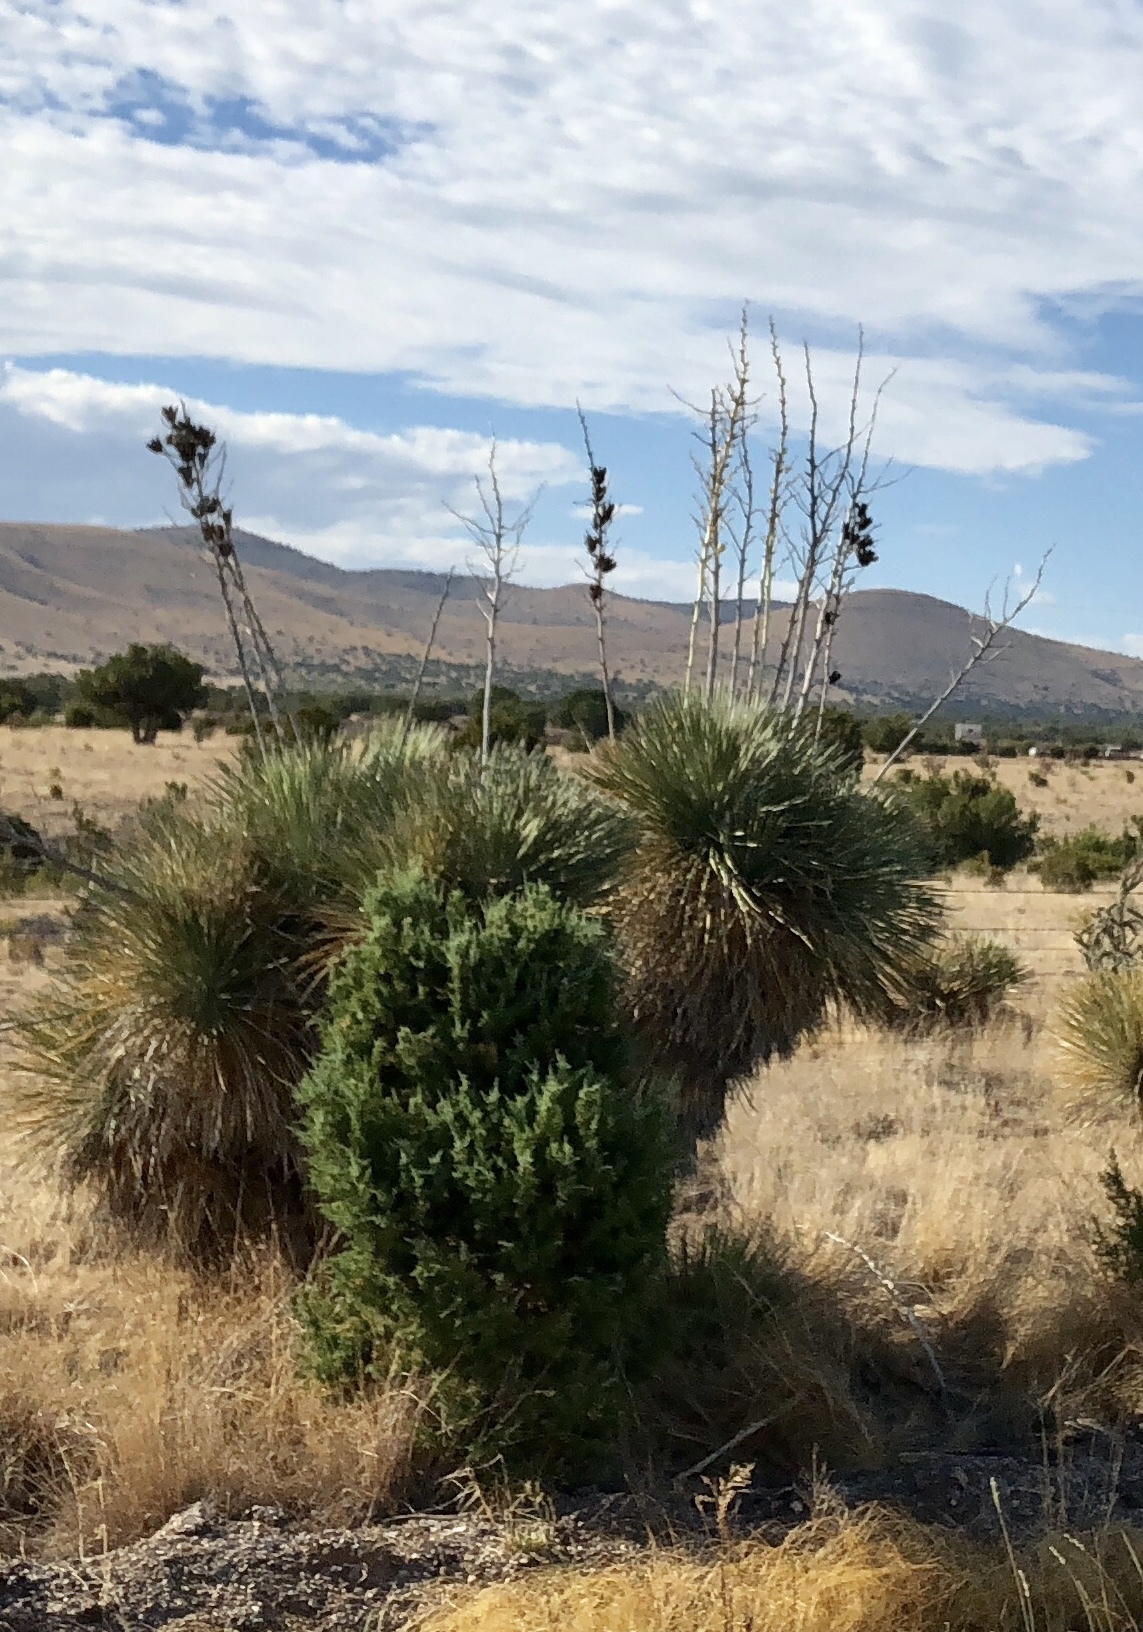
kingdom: Plantae
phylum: Tracheophyta
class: Liliopsida
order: Asparagales
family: Asparagaceae
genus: Yucca
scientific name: Yucca elata
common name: Palmella
